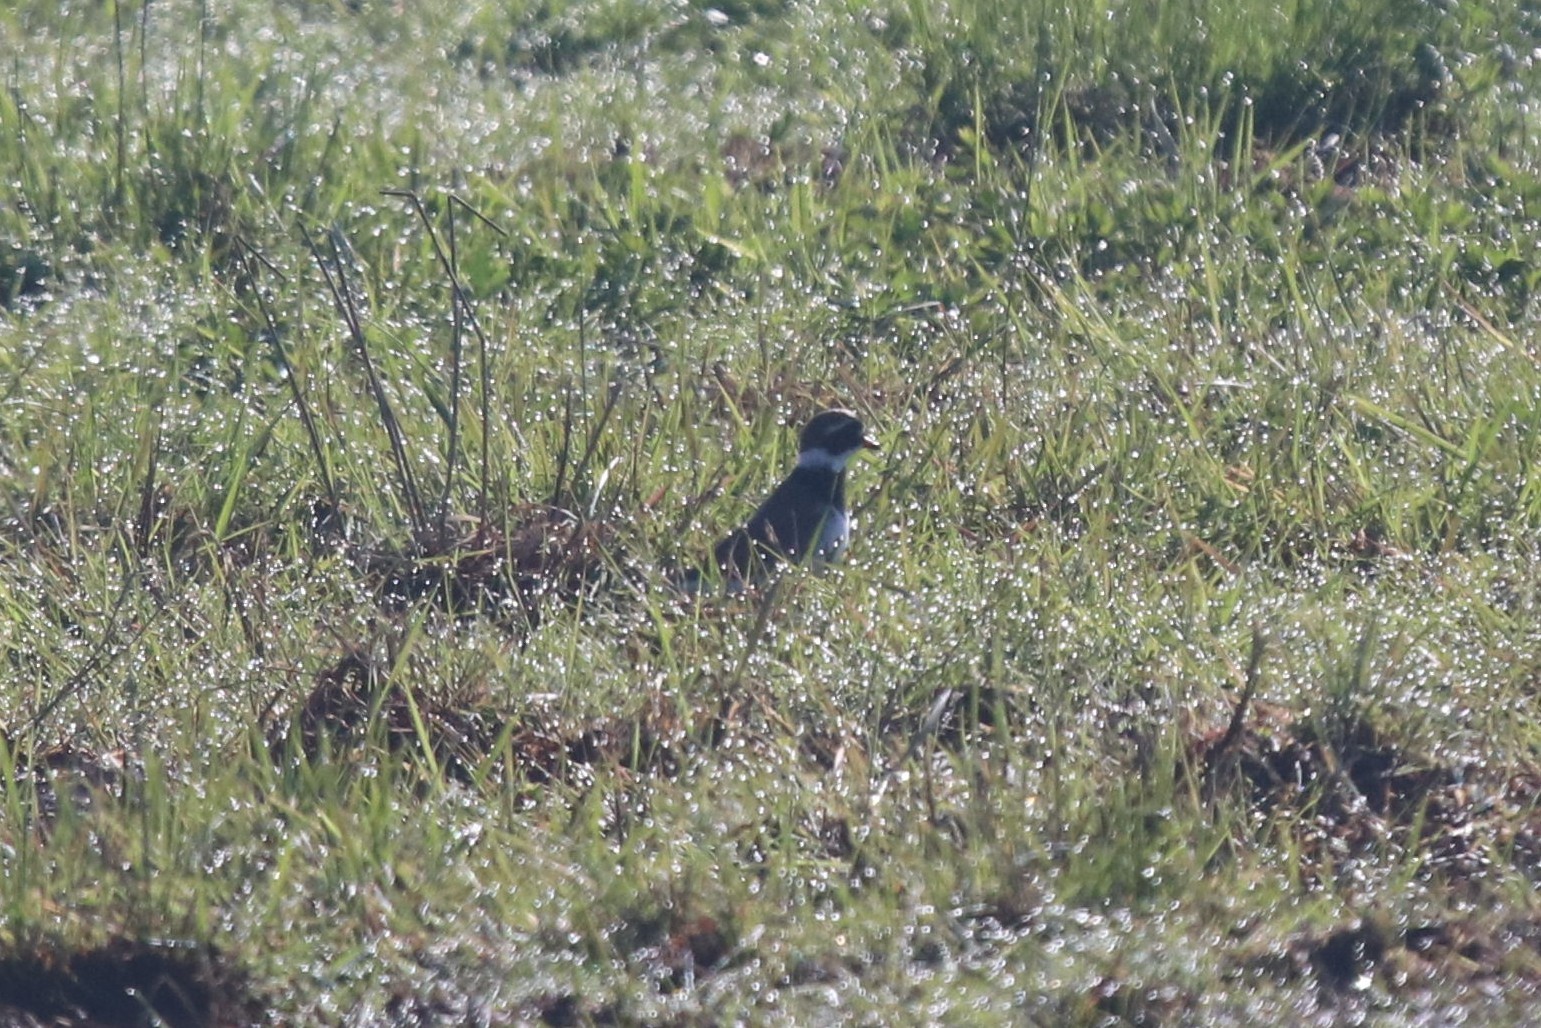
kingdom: Animalia
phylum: Chordata
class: Aves
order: Charadriiformes
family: Charadriidae
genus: Charadrius
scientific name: Charadrius hiaticula
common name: Common ringed plover
